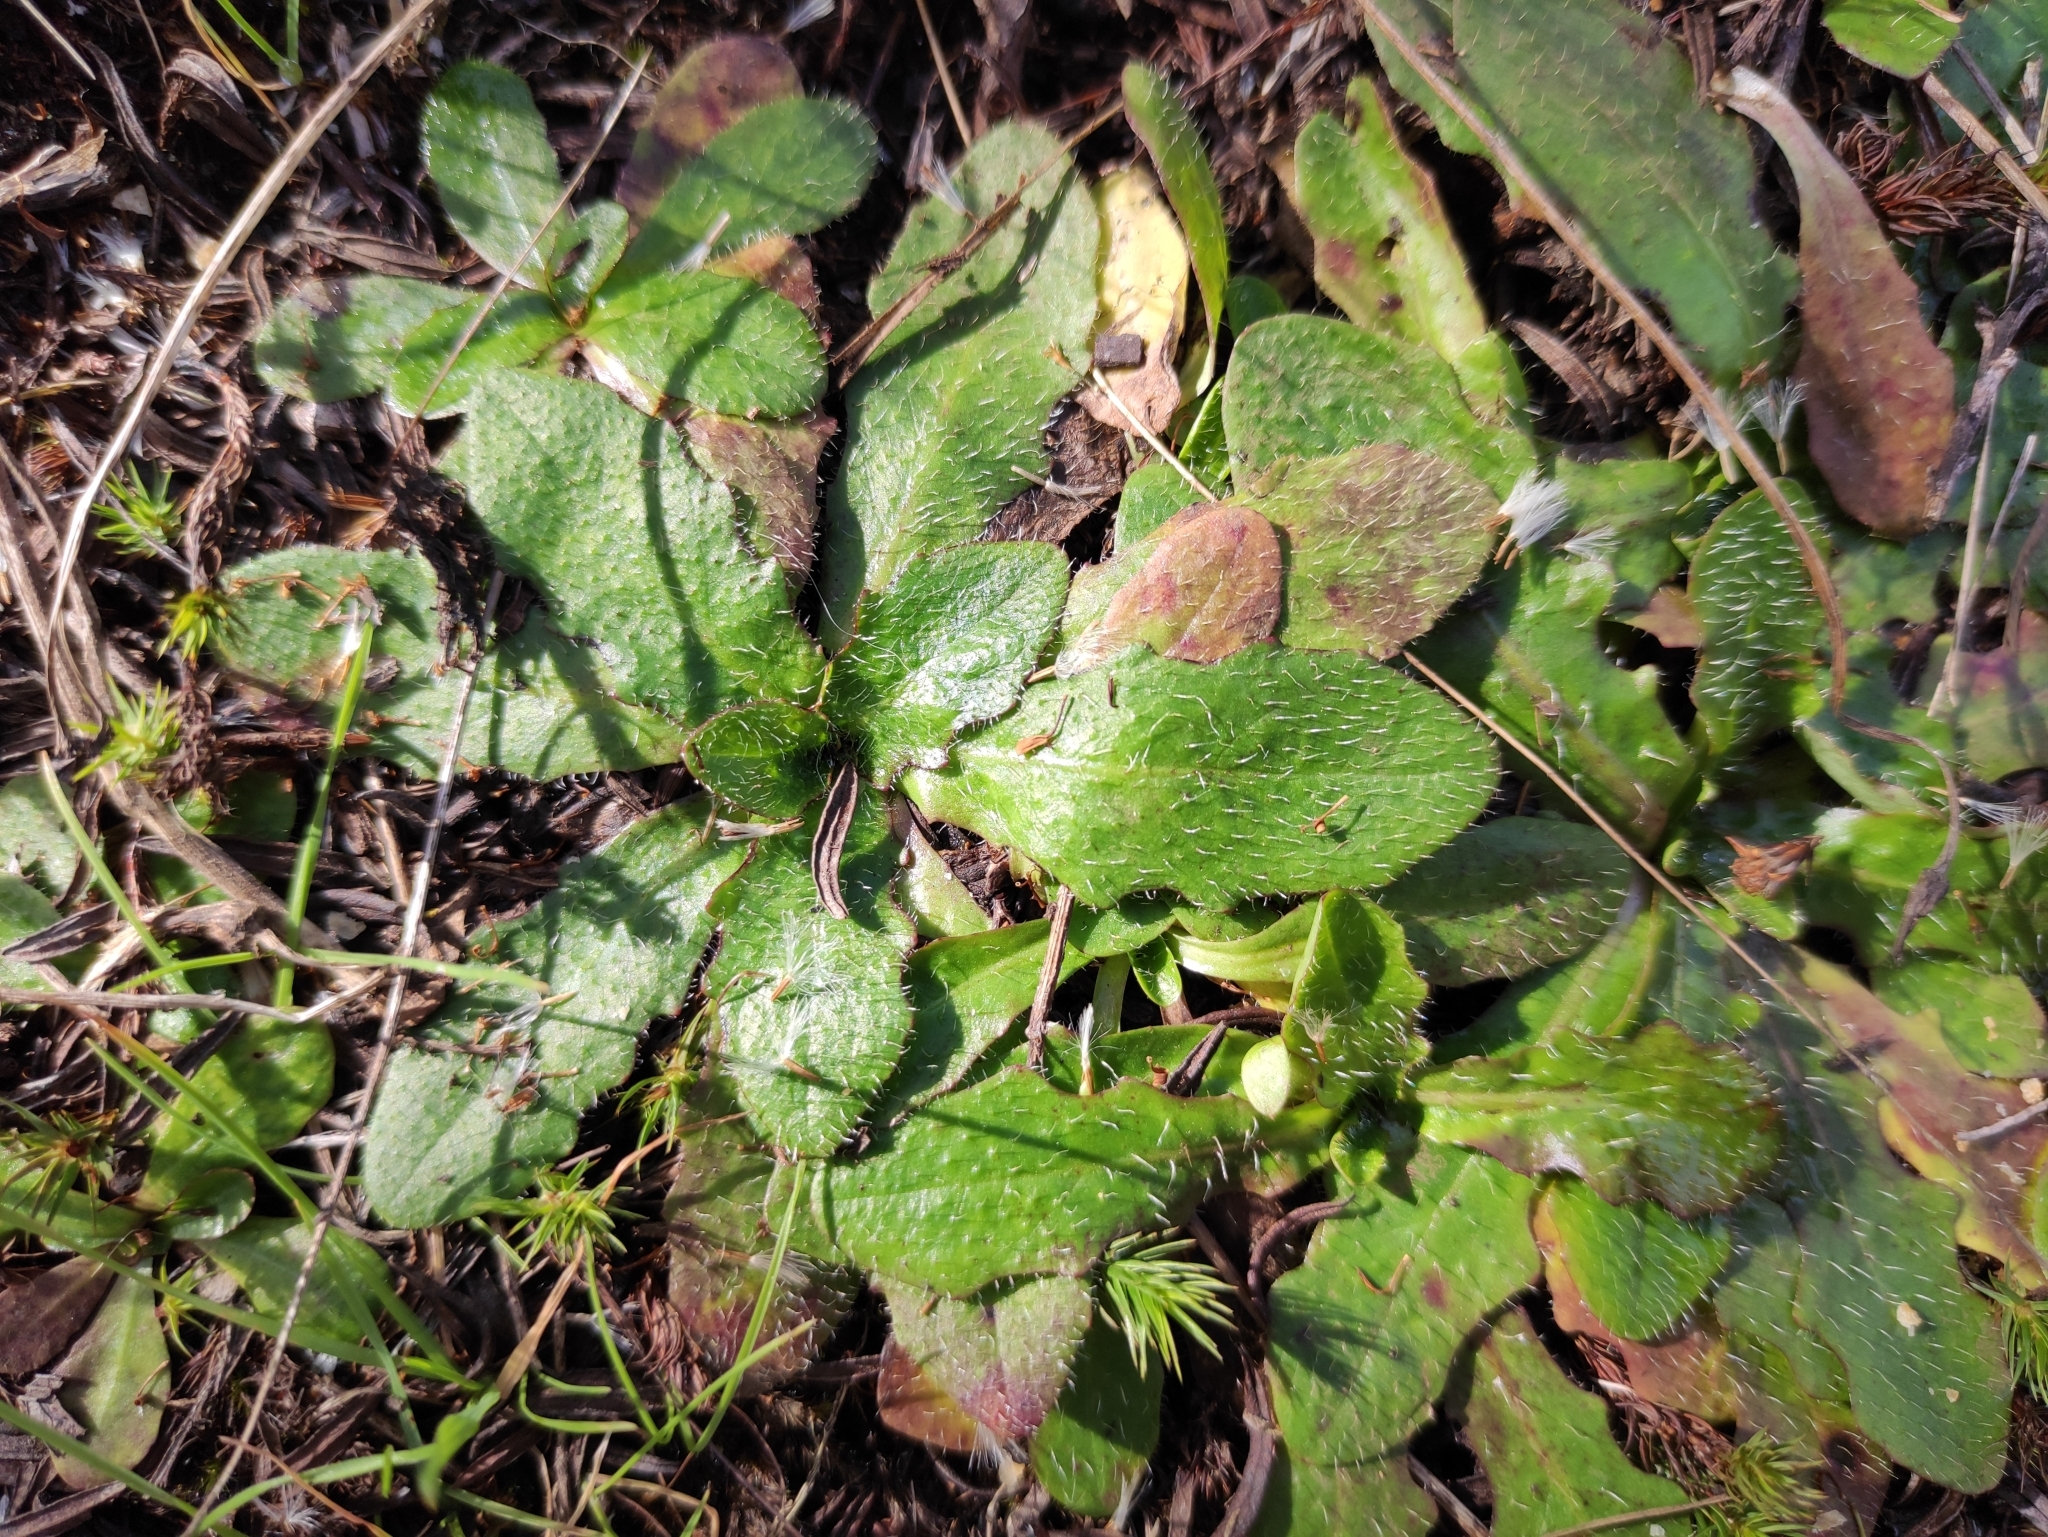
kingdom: Plantae
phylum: Tracheophyta
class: Magnoliopsida
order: Asterales
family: Asteraceae
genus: Hypochaeris
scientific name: Hypochaeris radicata
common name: Flatweed
